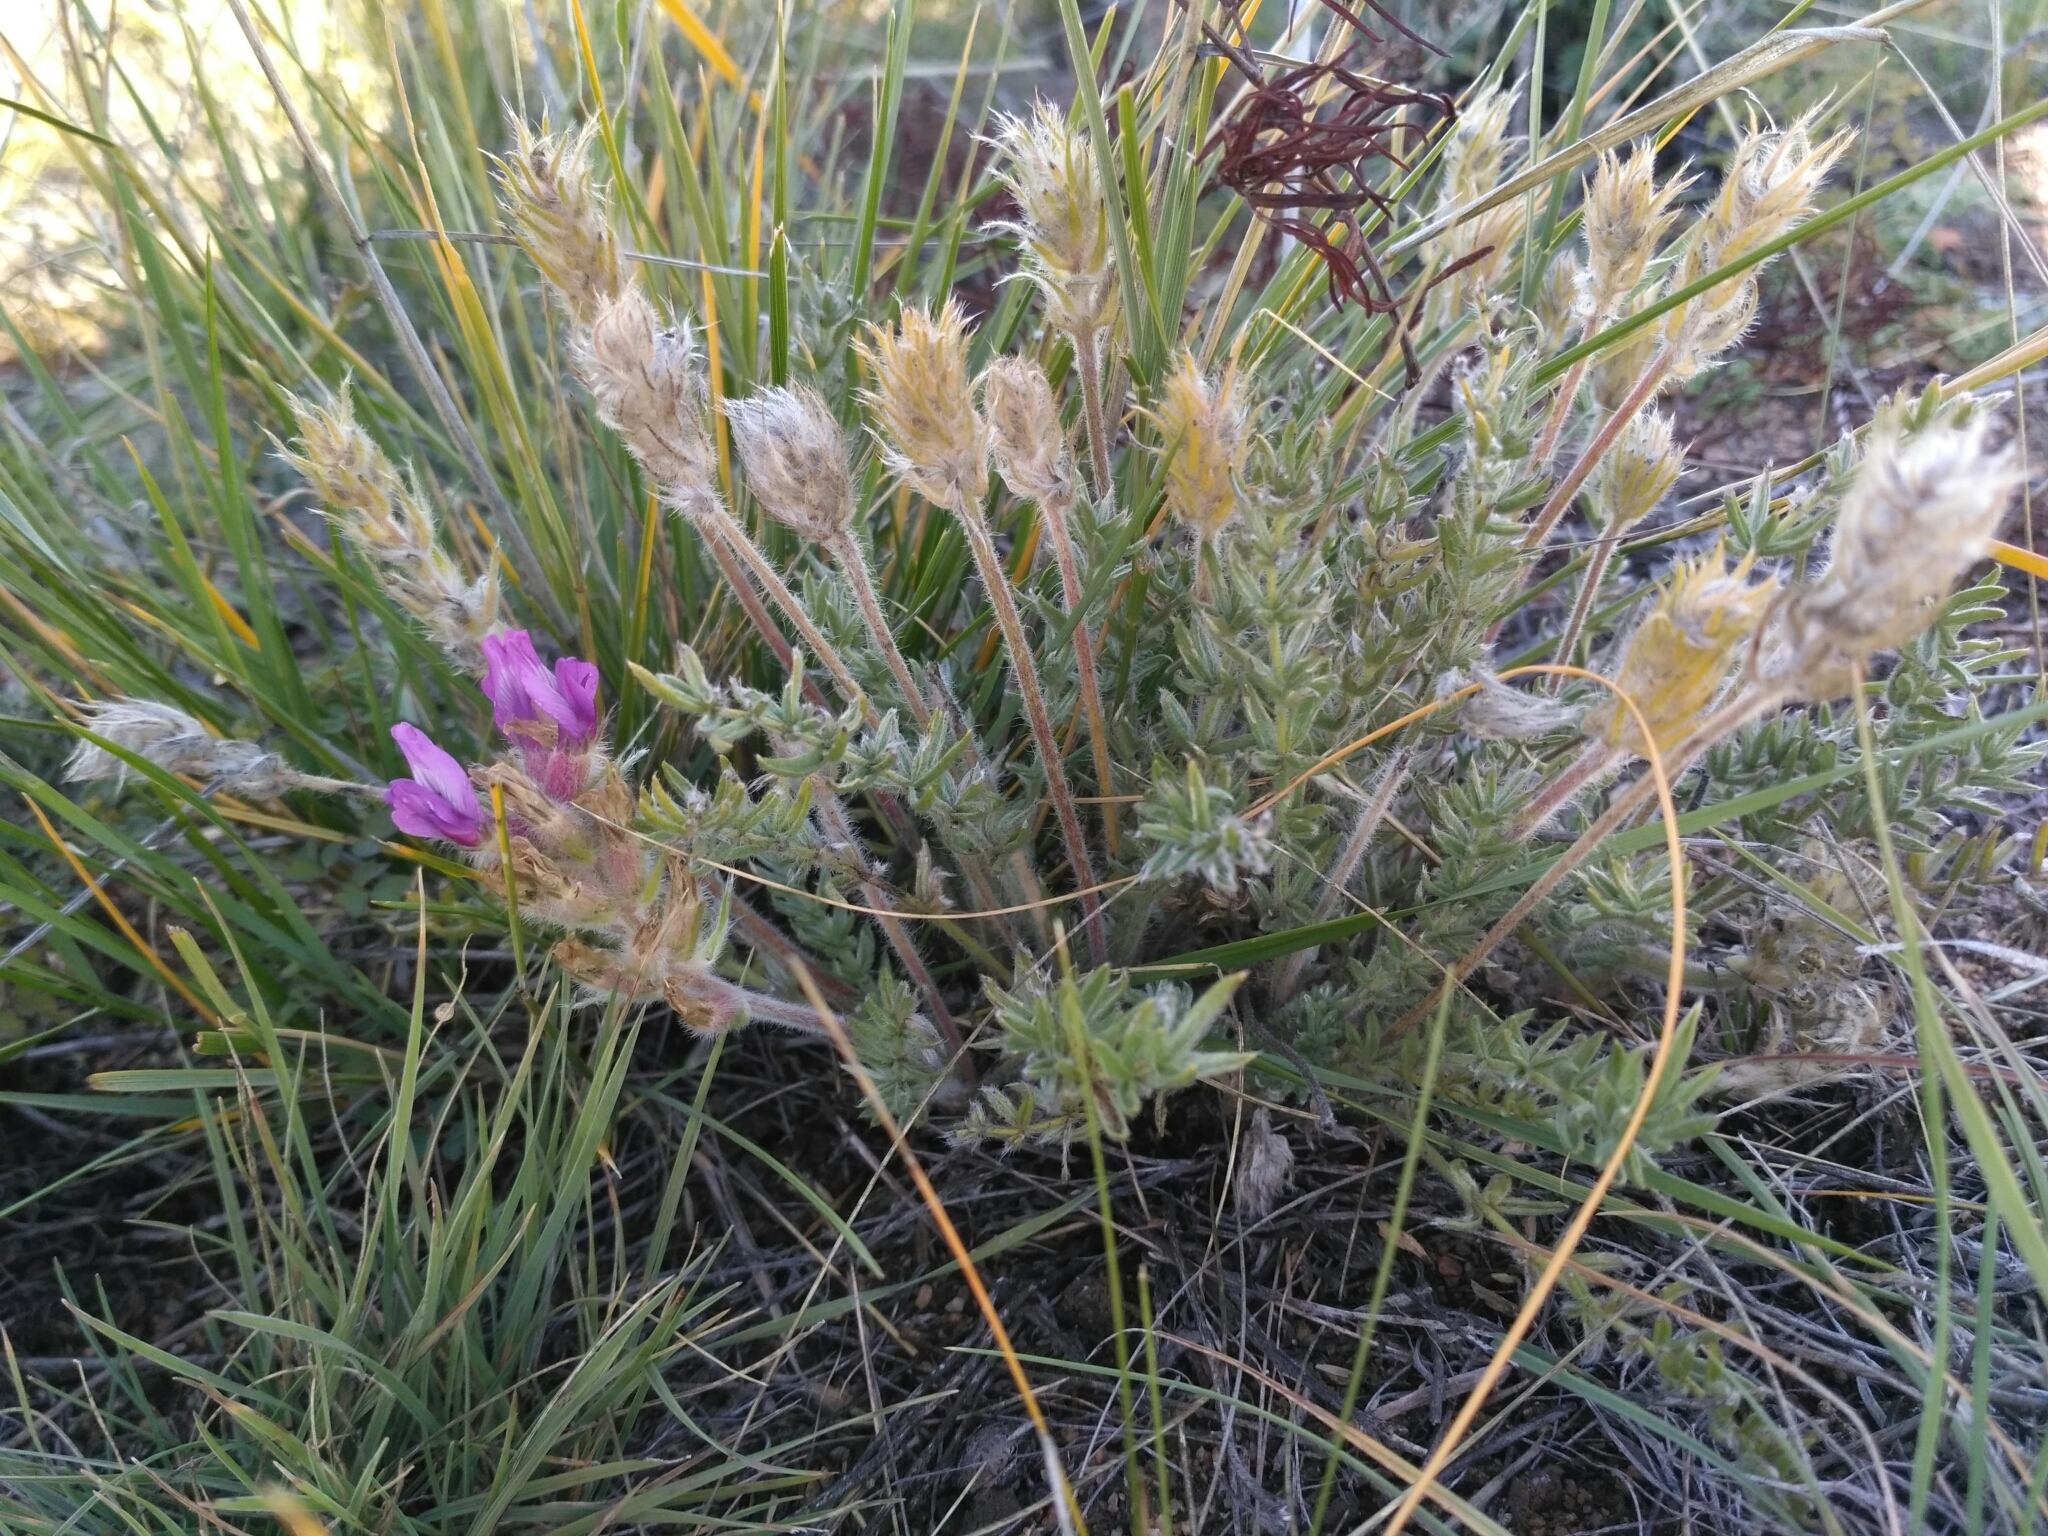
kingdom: Plantae
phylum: Tracheophyta
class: Magnoliopsida
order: Fabales
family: Fabaceae
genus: Oxytropis
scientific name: Oxytropis turczaninovii
